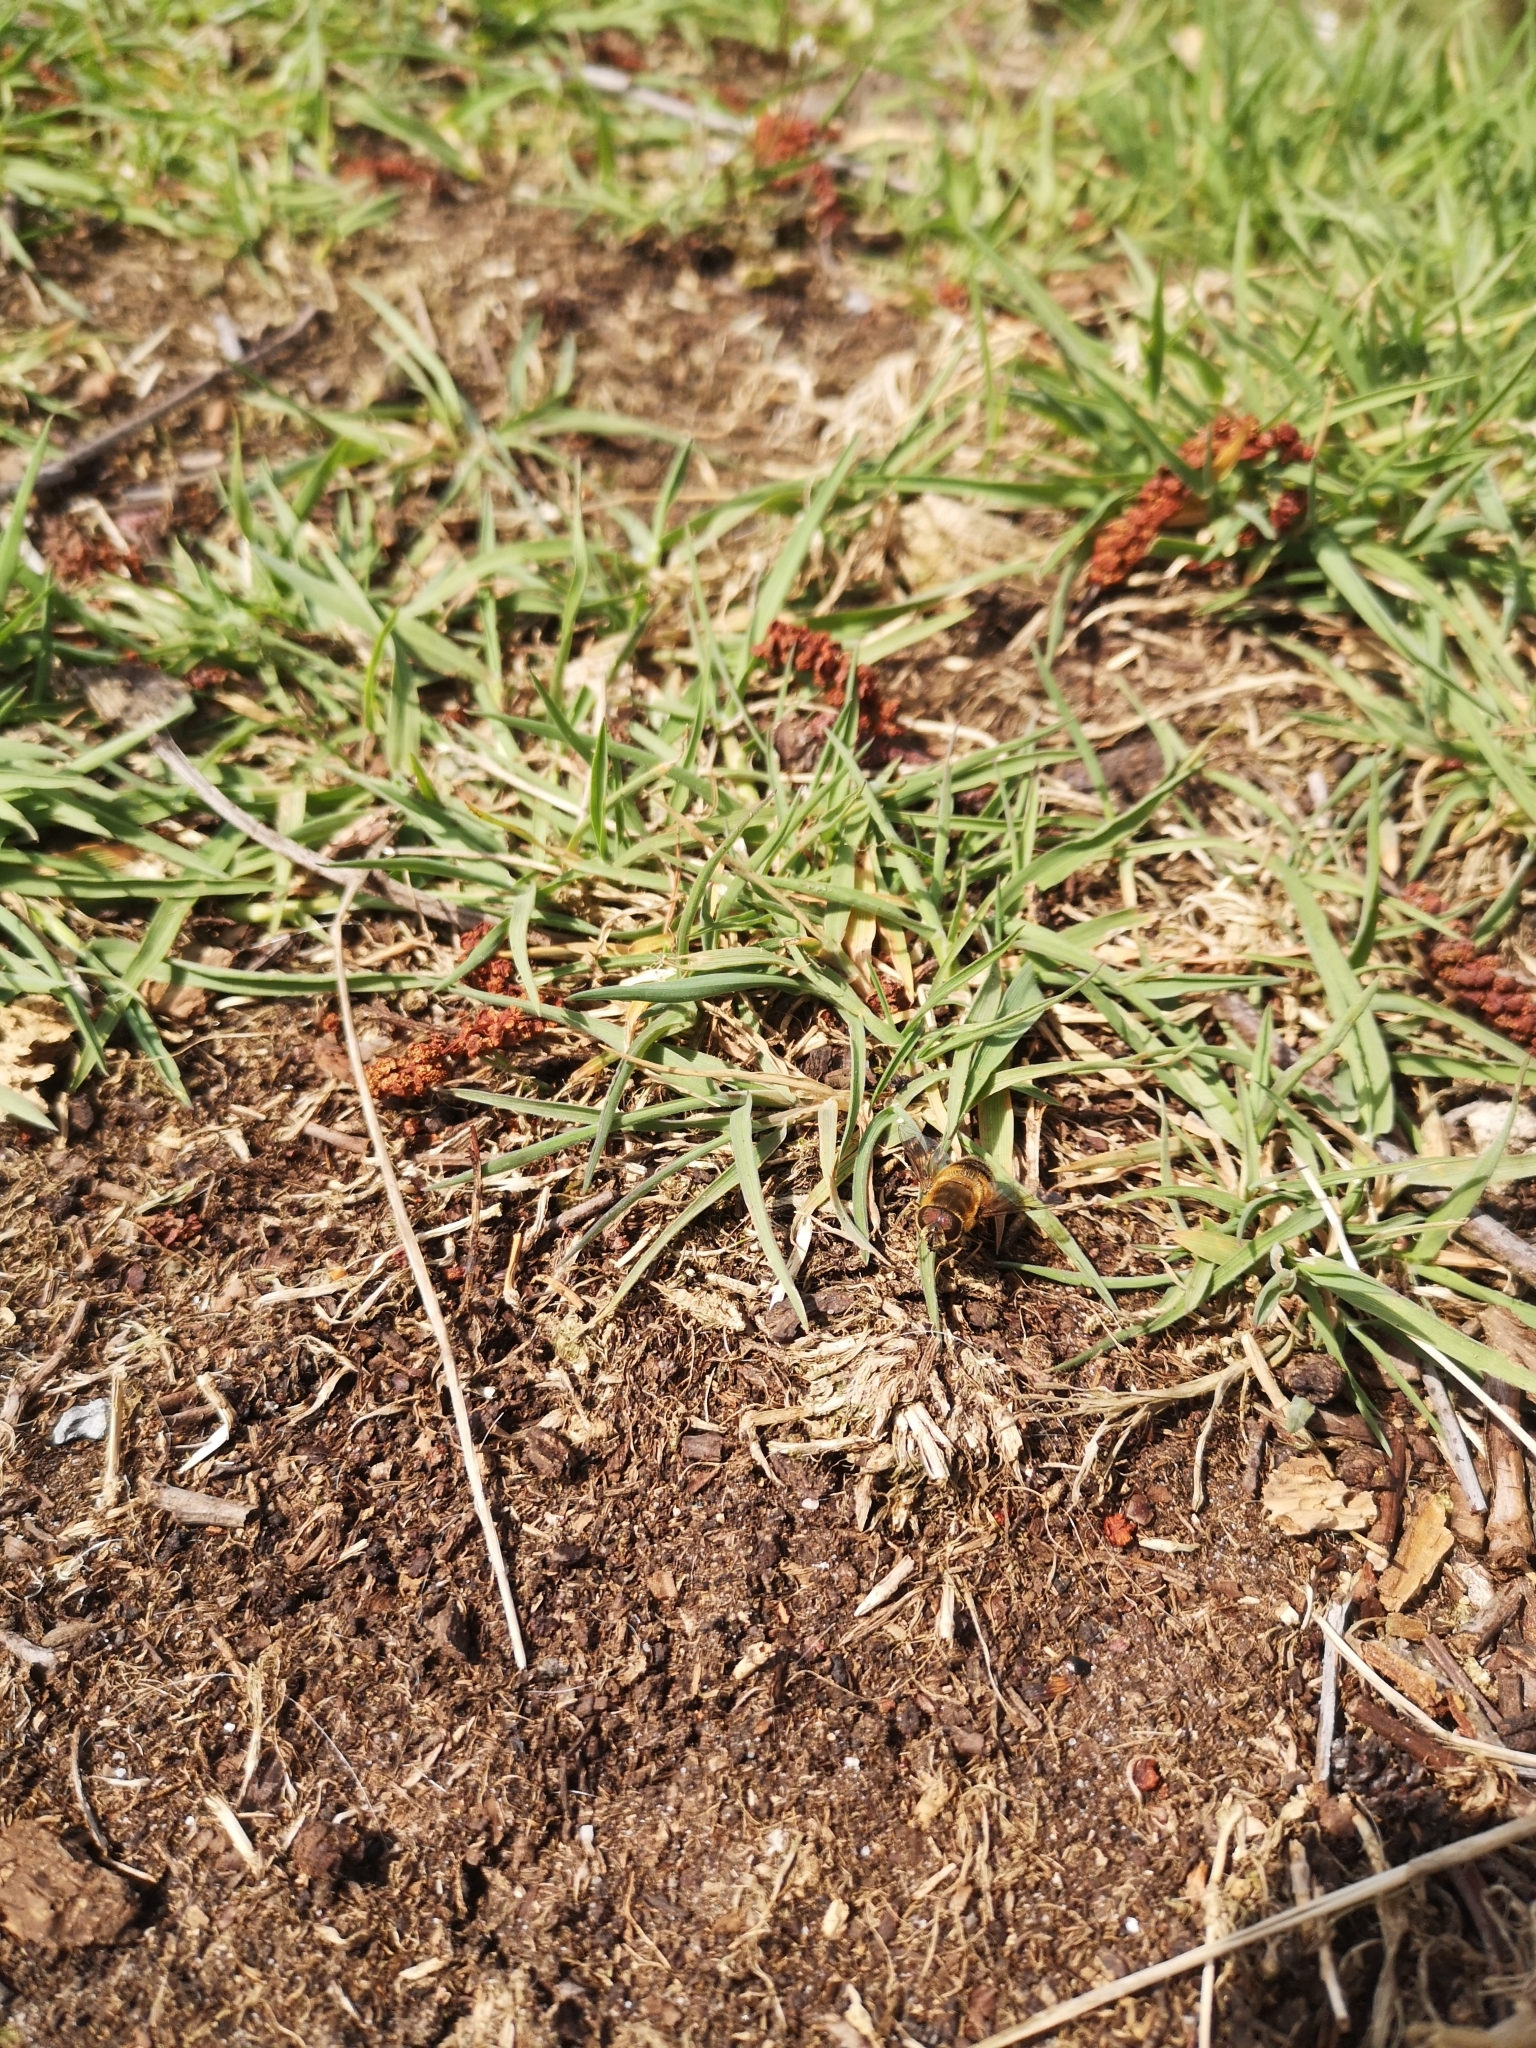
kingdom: Animalia
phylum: Arthropoda
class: Insecta
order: Diptera
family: Syrphidae
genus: Eristalis
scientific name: Eristalis pertinax
